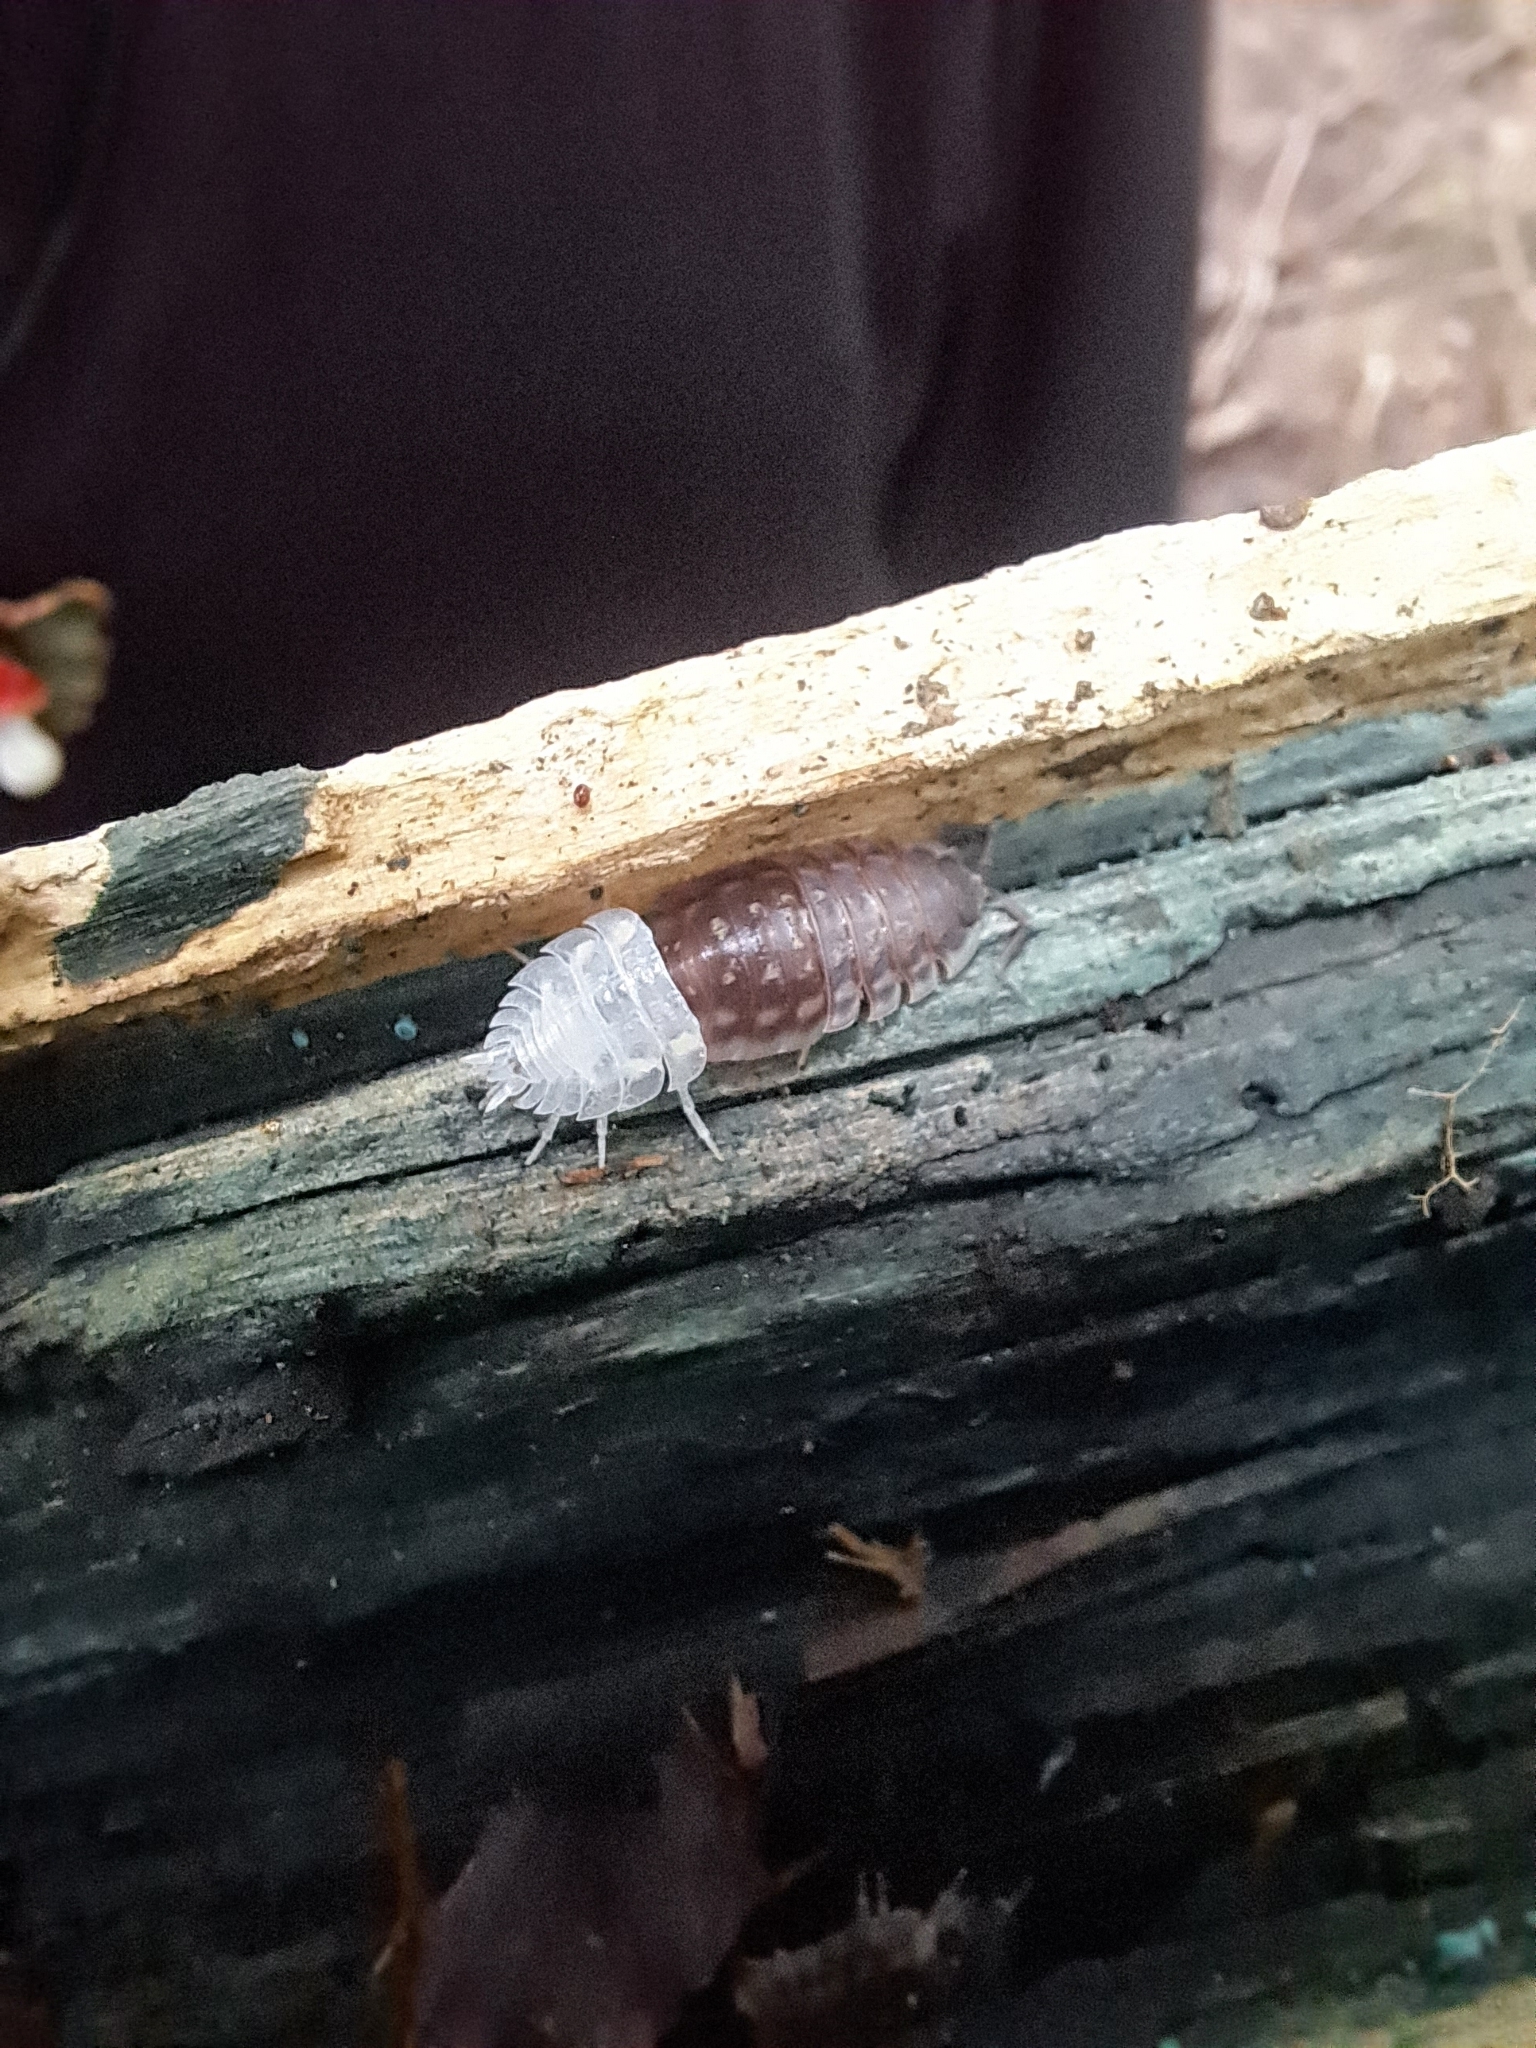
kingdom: Animalia
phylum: Arthropoda
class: Malacostraca
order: Isopoda
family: Oniscidae
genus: Oniscus
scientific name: Oniscus asellus
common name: Common shiny woodlouse
